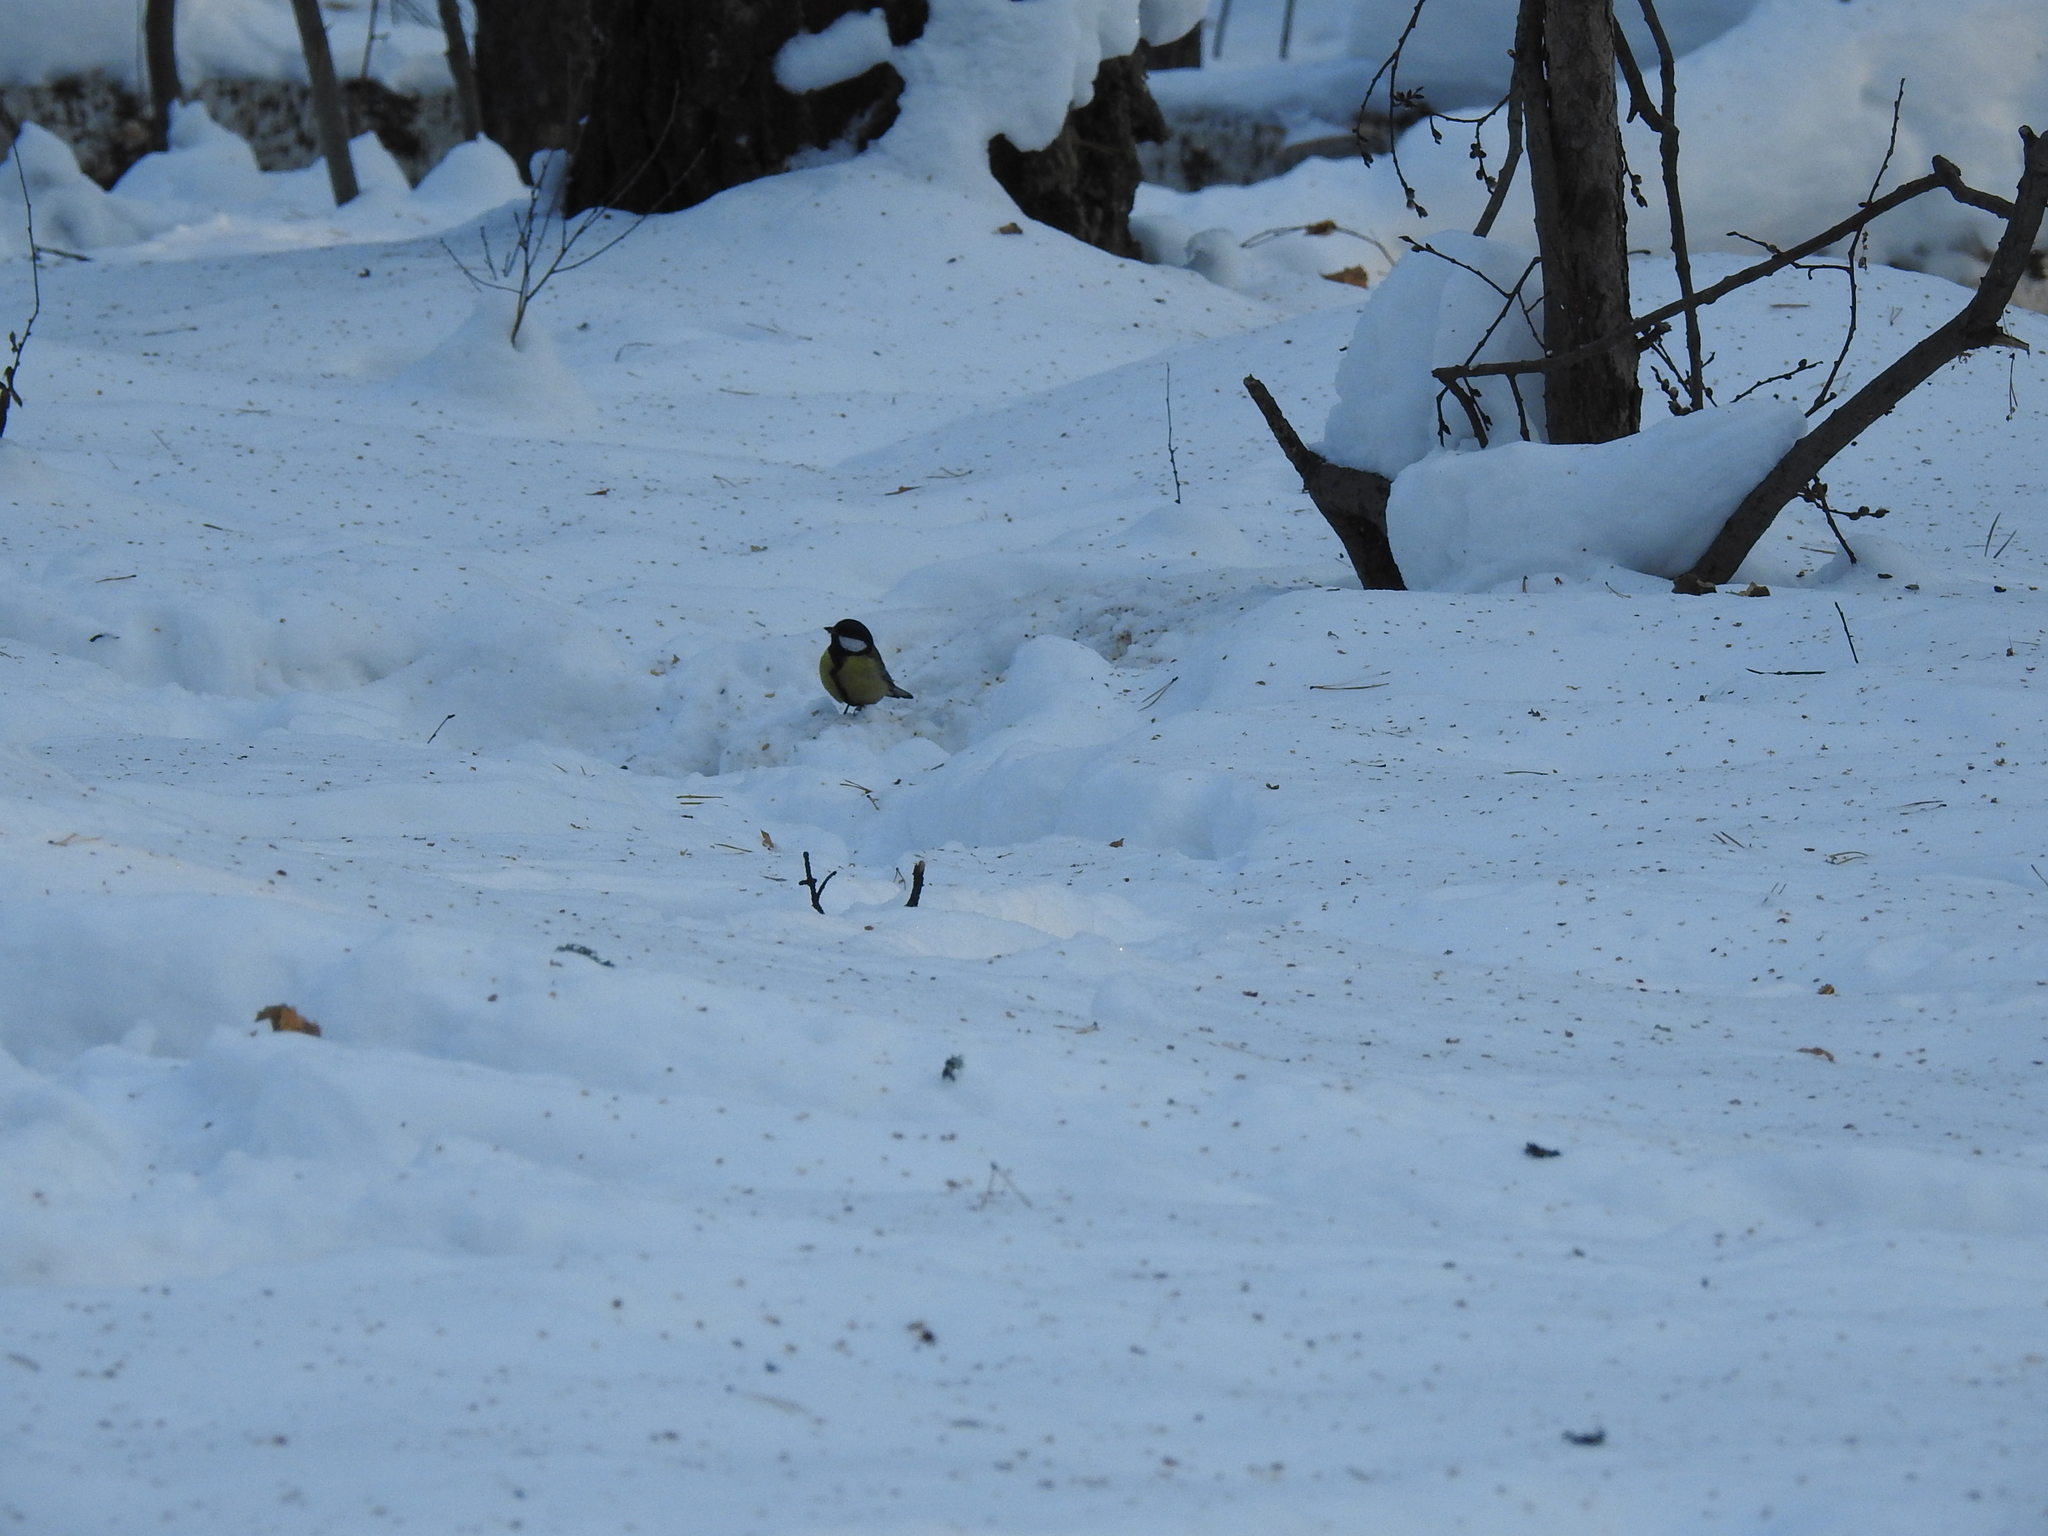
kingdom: Animalia
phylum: Chordata
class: Aves
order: Passeriformes
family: Paridae
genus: Parus
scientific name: Parus major
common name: Great tit
